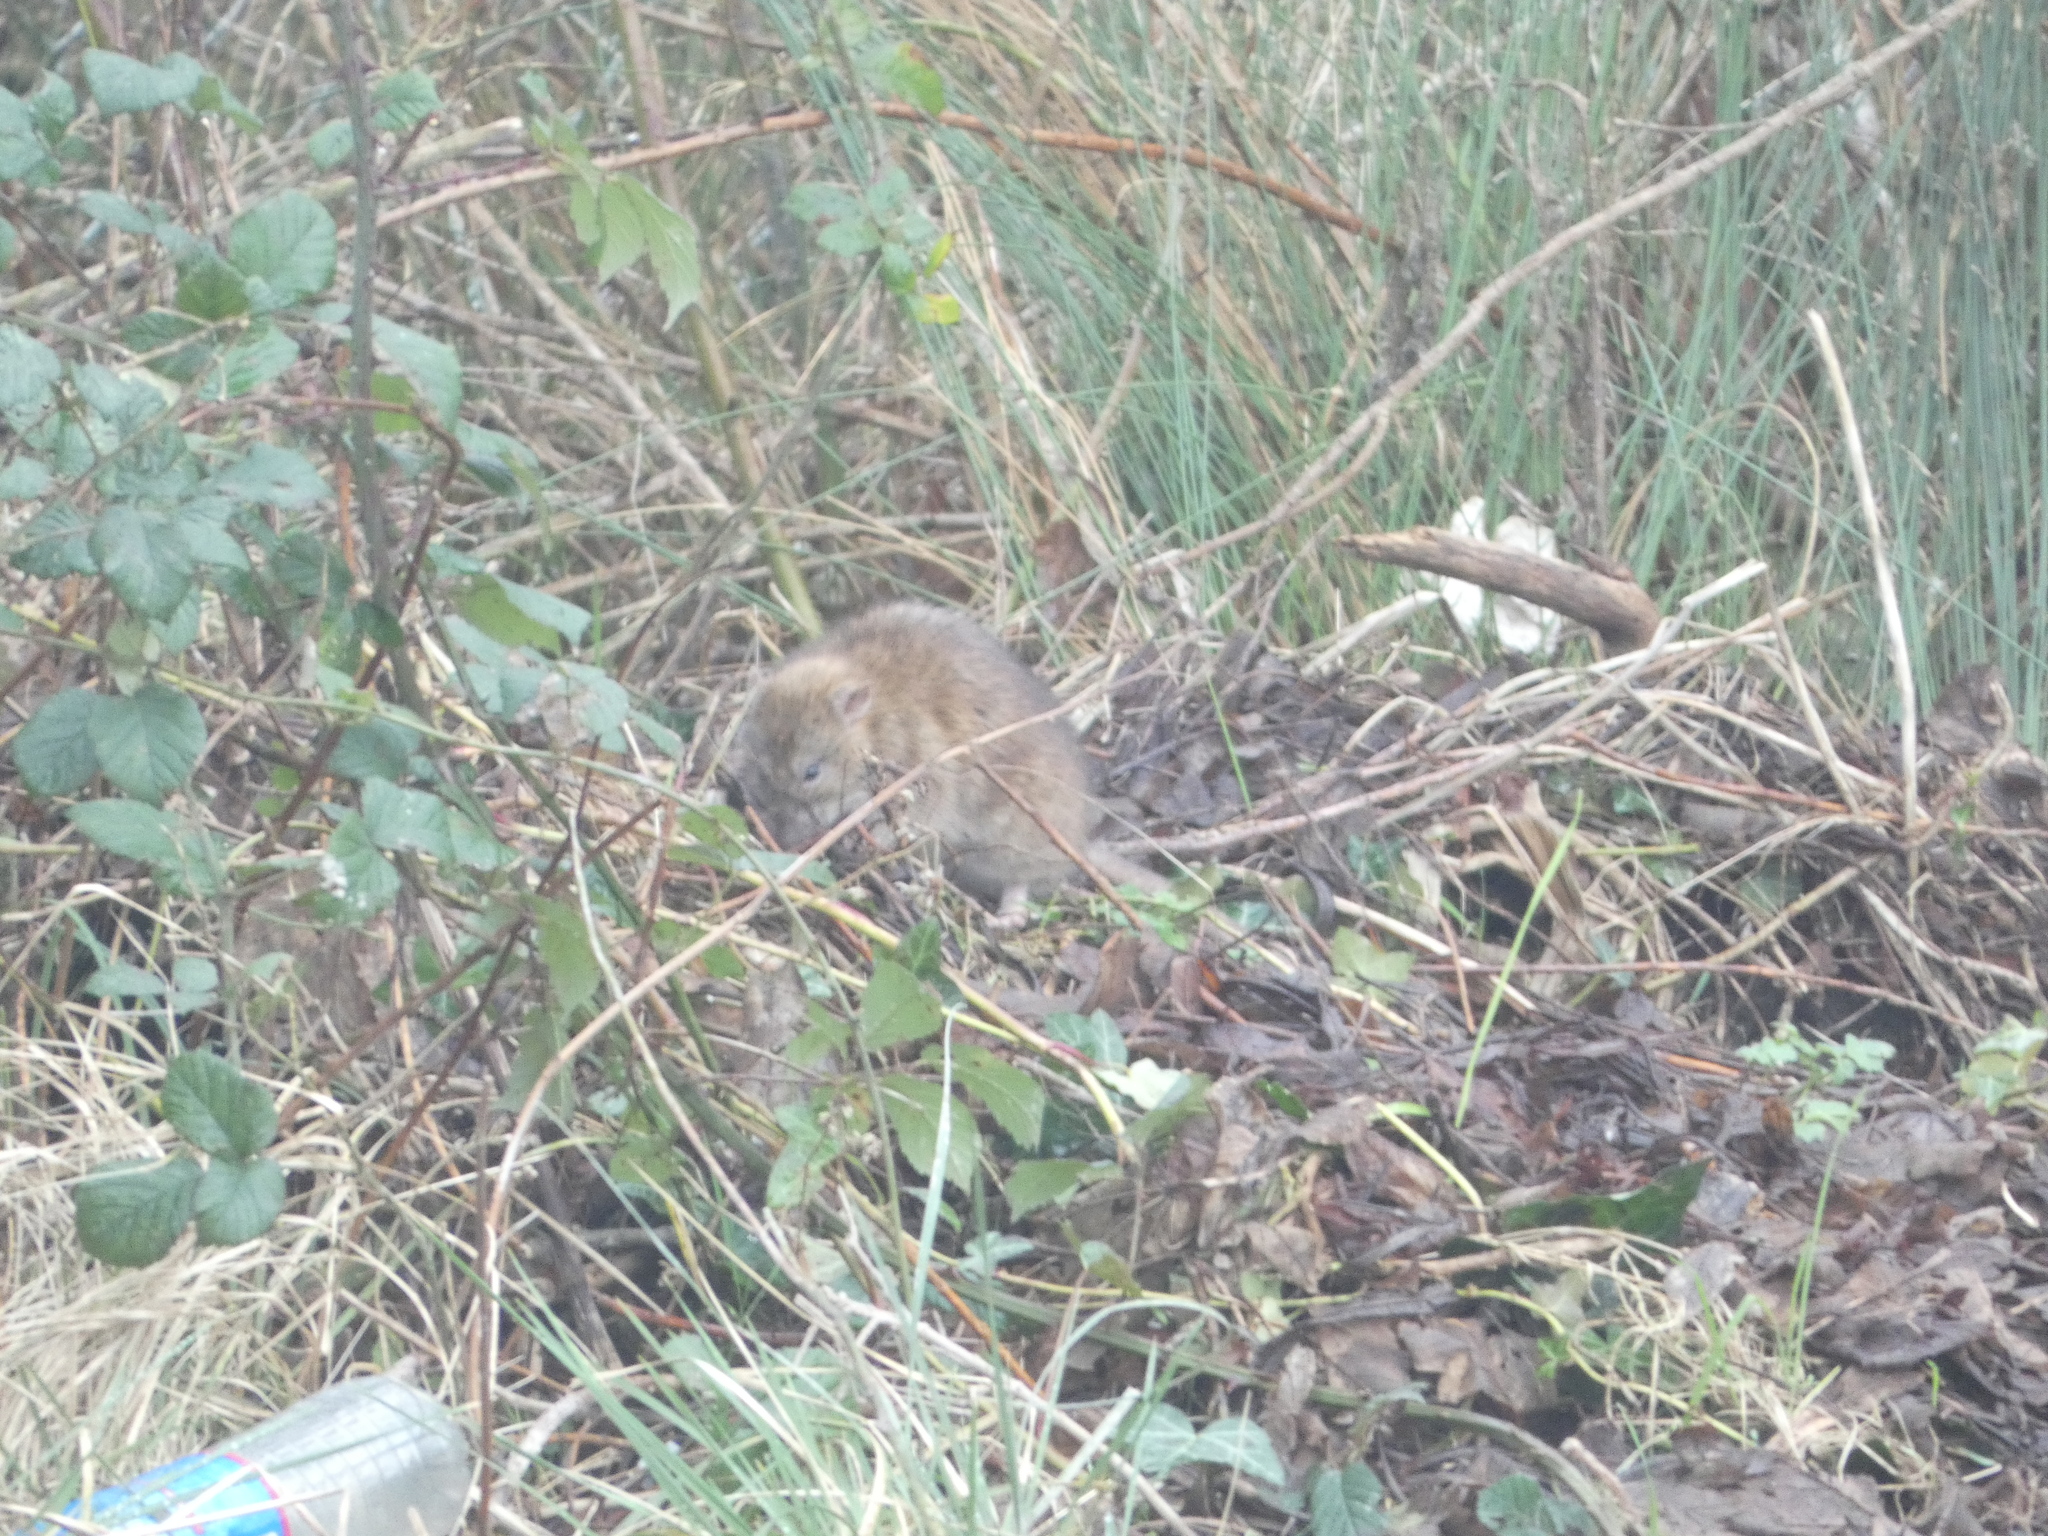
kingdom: Animalia
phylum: Chordata
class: Mammalia
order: Rodentia
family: Muridae
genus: Rattus
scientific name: Rattus norvegicus
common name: Brown rat
